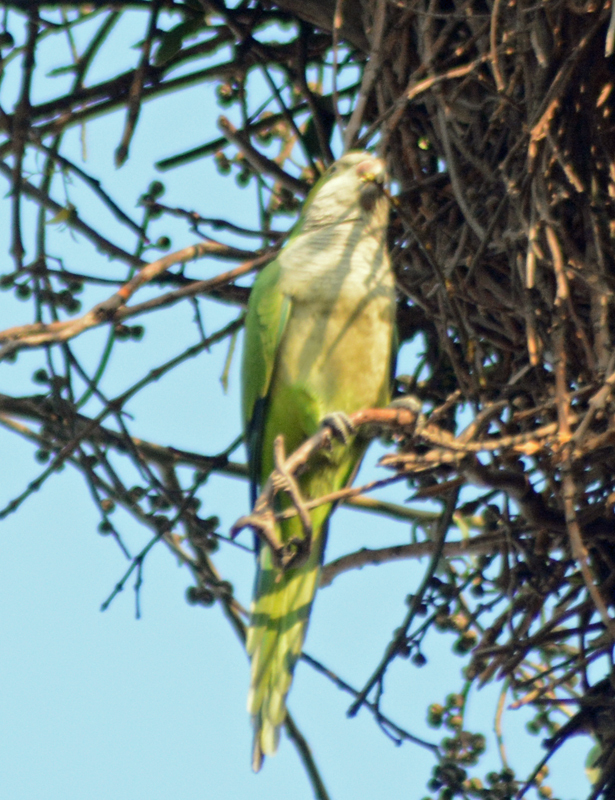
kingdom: Animalia
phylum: Chordata
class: Aves
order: Psittaciformes
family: Psittacidae
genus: Myiopsitta
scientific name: Myiopsitta monachus
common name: Monk parakeet
